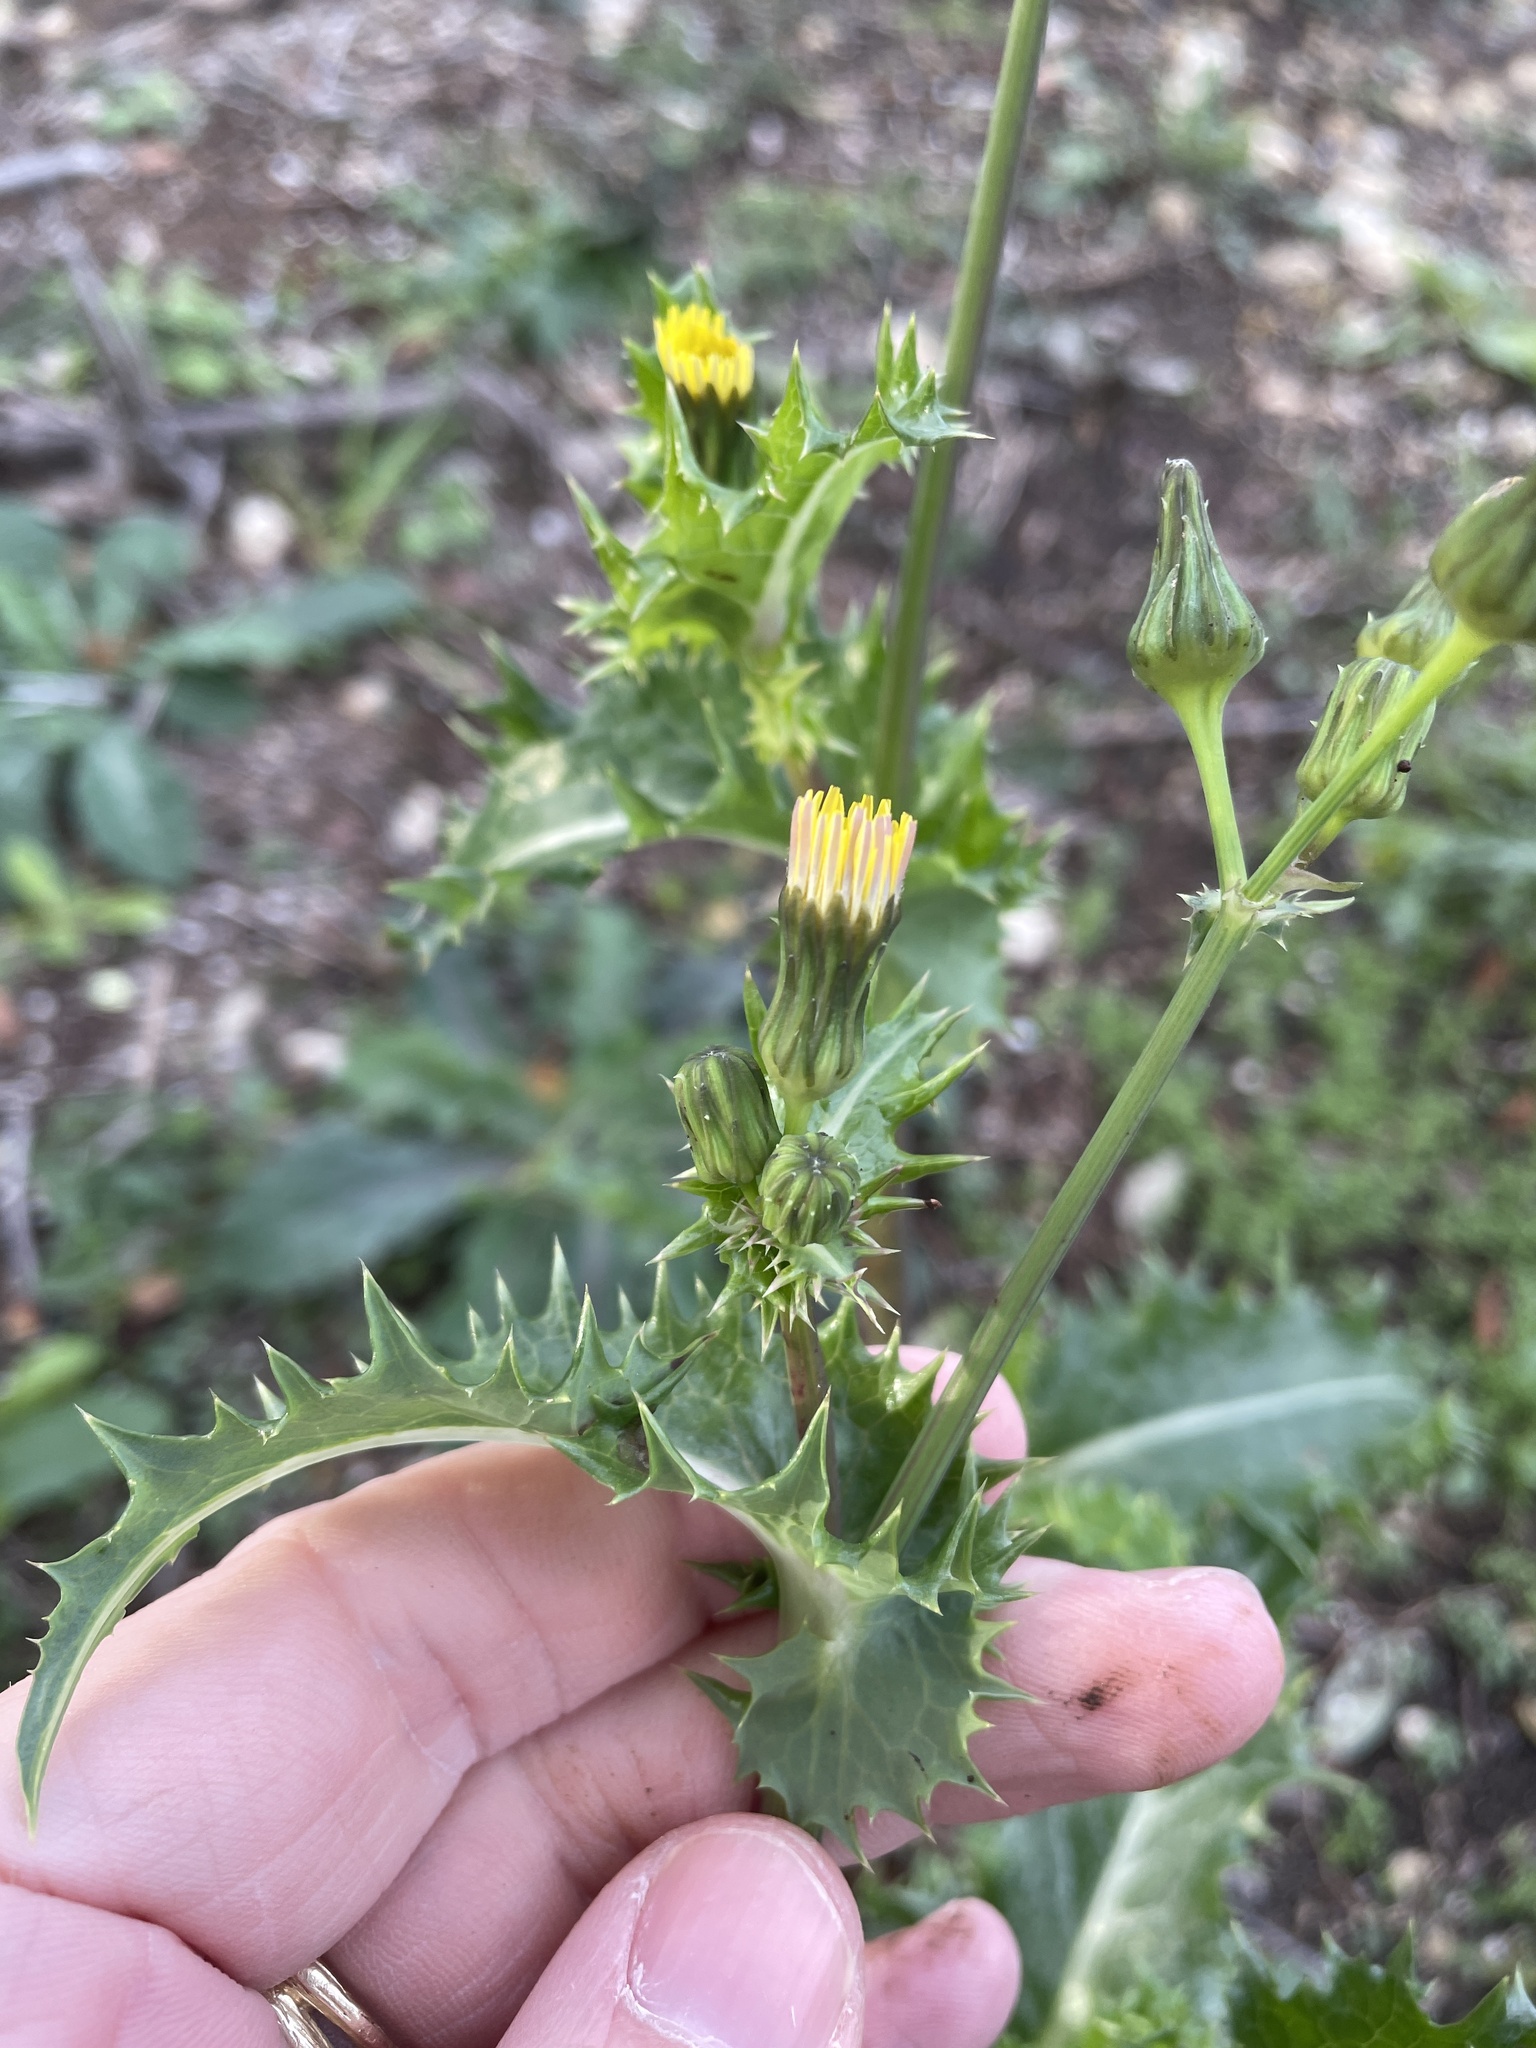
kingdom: Plantae
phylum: Tracheophyta
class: Magnoliopsida
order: Asterales
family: Asteraceae
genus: Sonchus
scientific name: Sonchus asper
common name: Prickly sow-thistle
